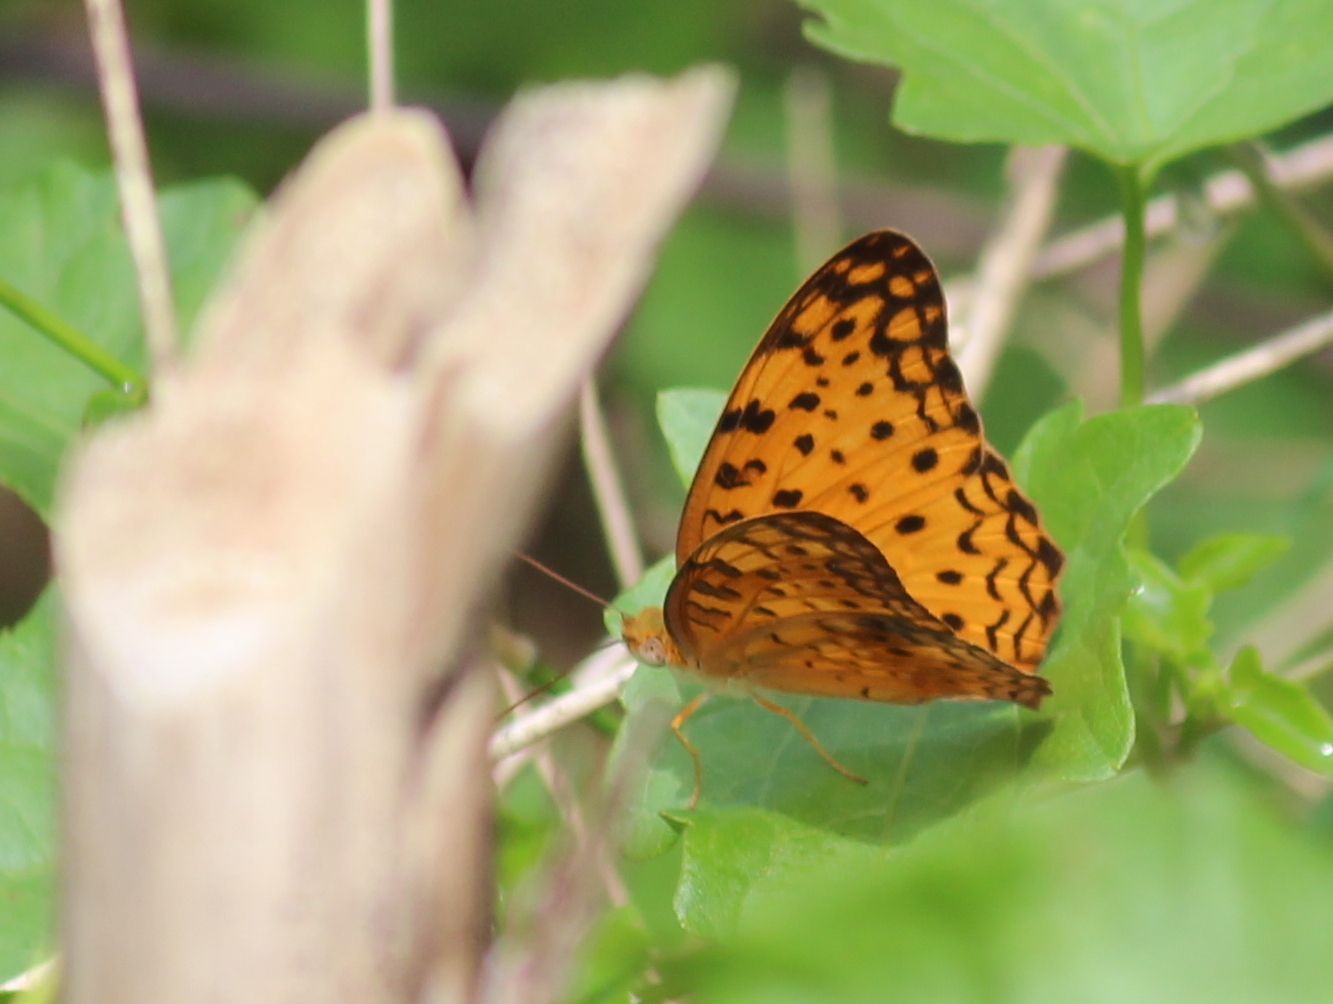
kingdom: Animalia
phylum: Arthropoda
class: Insecta
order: Lepidoptera
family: Nymphalidae
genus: Phalanta
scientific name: Phalanta phalantha
